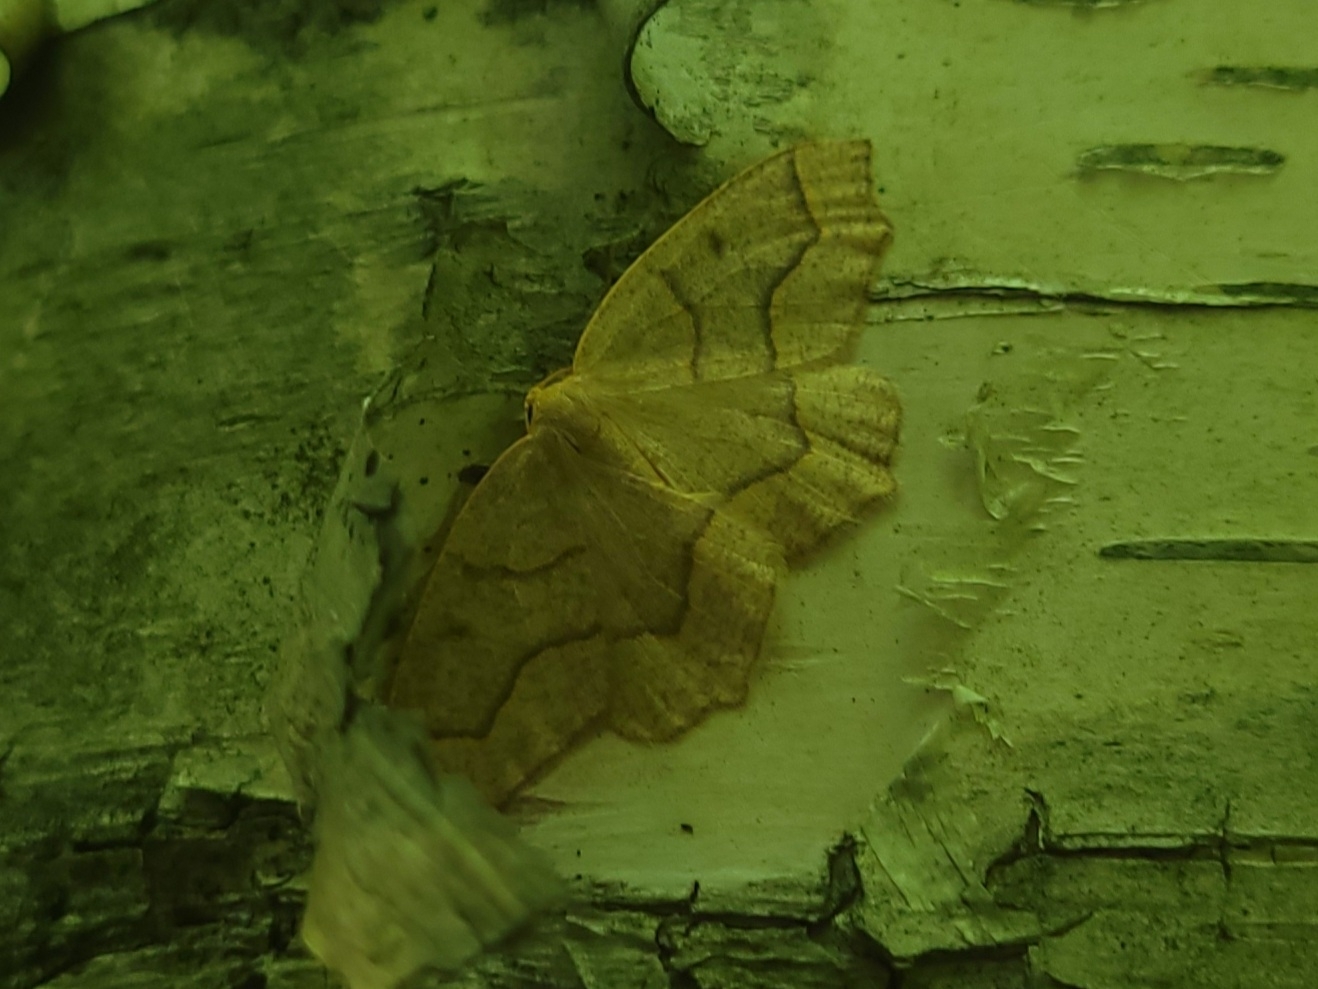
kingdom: Animalia
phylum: Arthropoda
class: Insecta
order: Lepidoptera
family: Geometridae
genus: Lambdina
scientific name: Lambdina fiscellaria
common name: Hemlock looper
